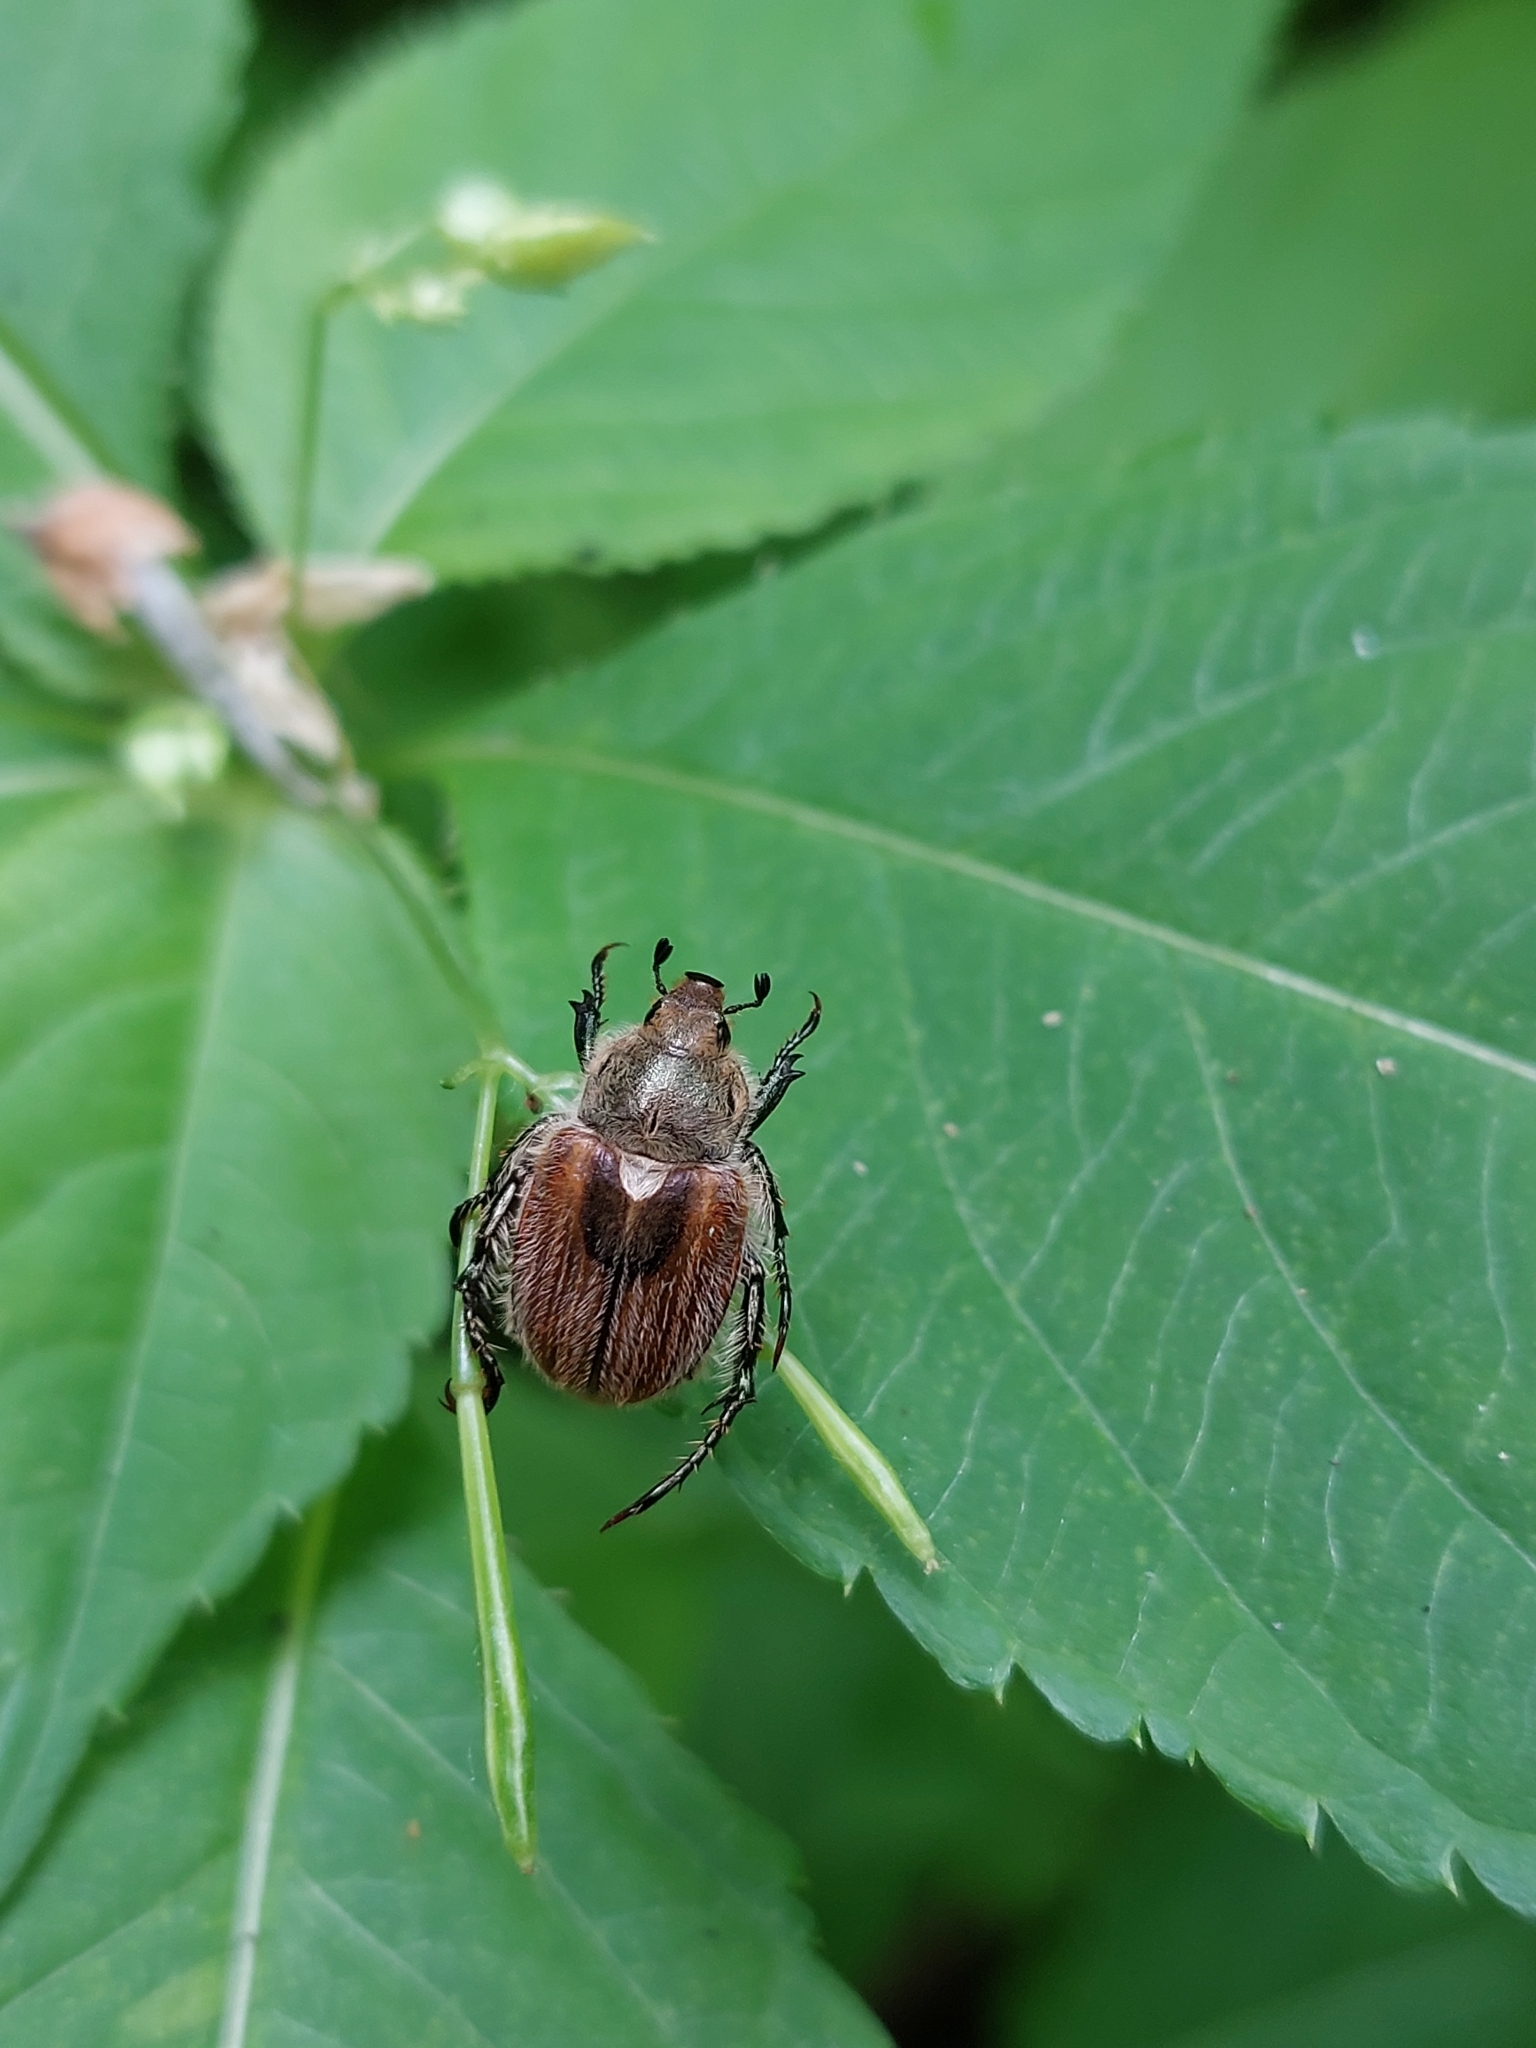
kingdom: Animalia
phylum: Arthropoda
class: Insecta
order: Coleoptera
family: Scarabaeidae
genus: Chaetopteroplia
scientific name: Chaetopteroplia segetum
